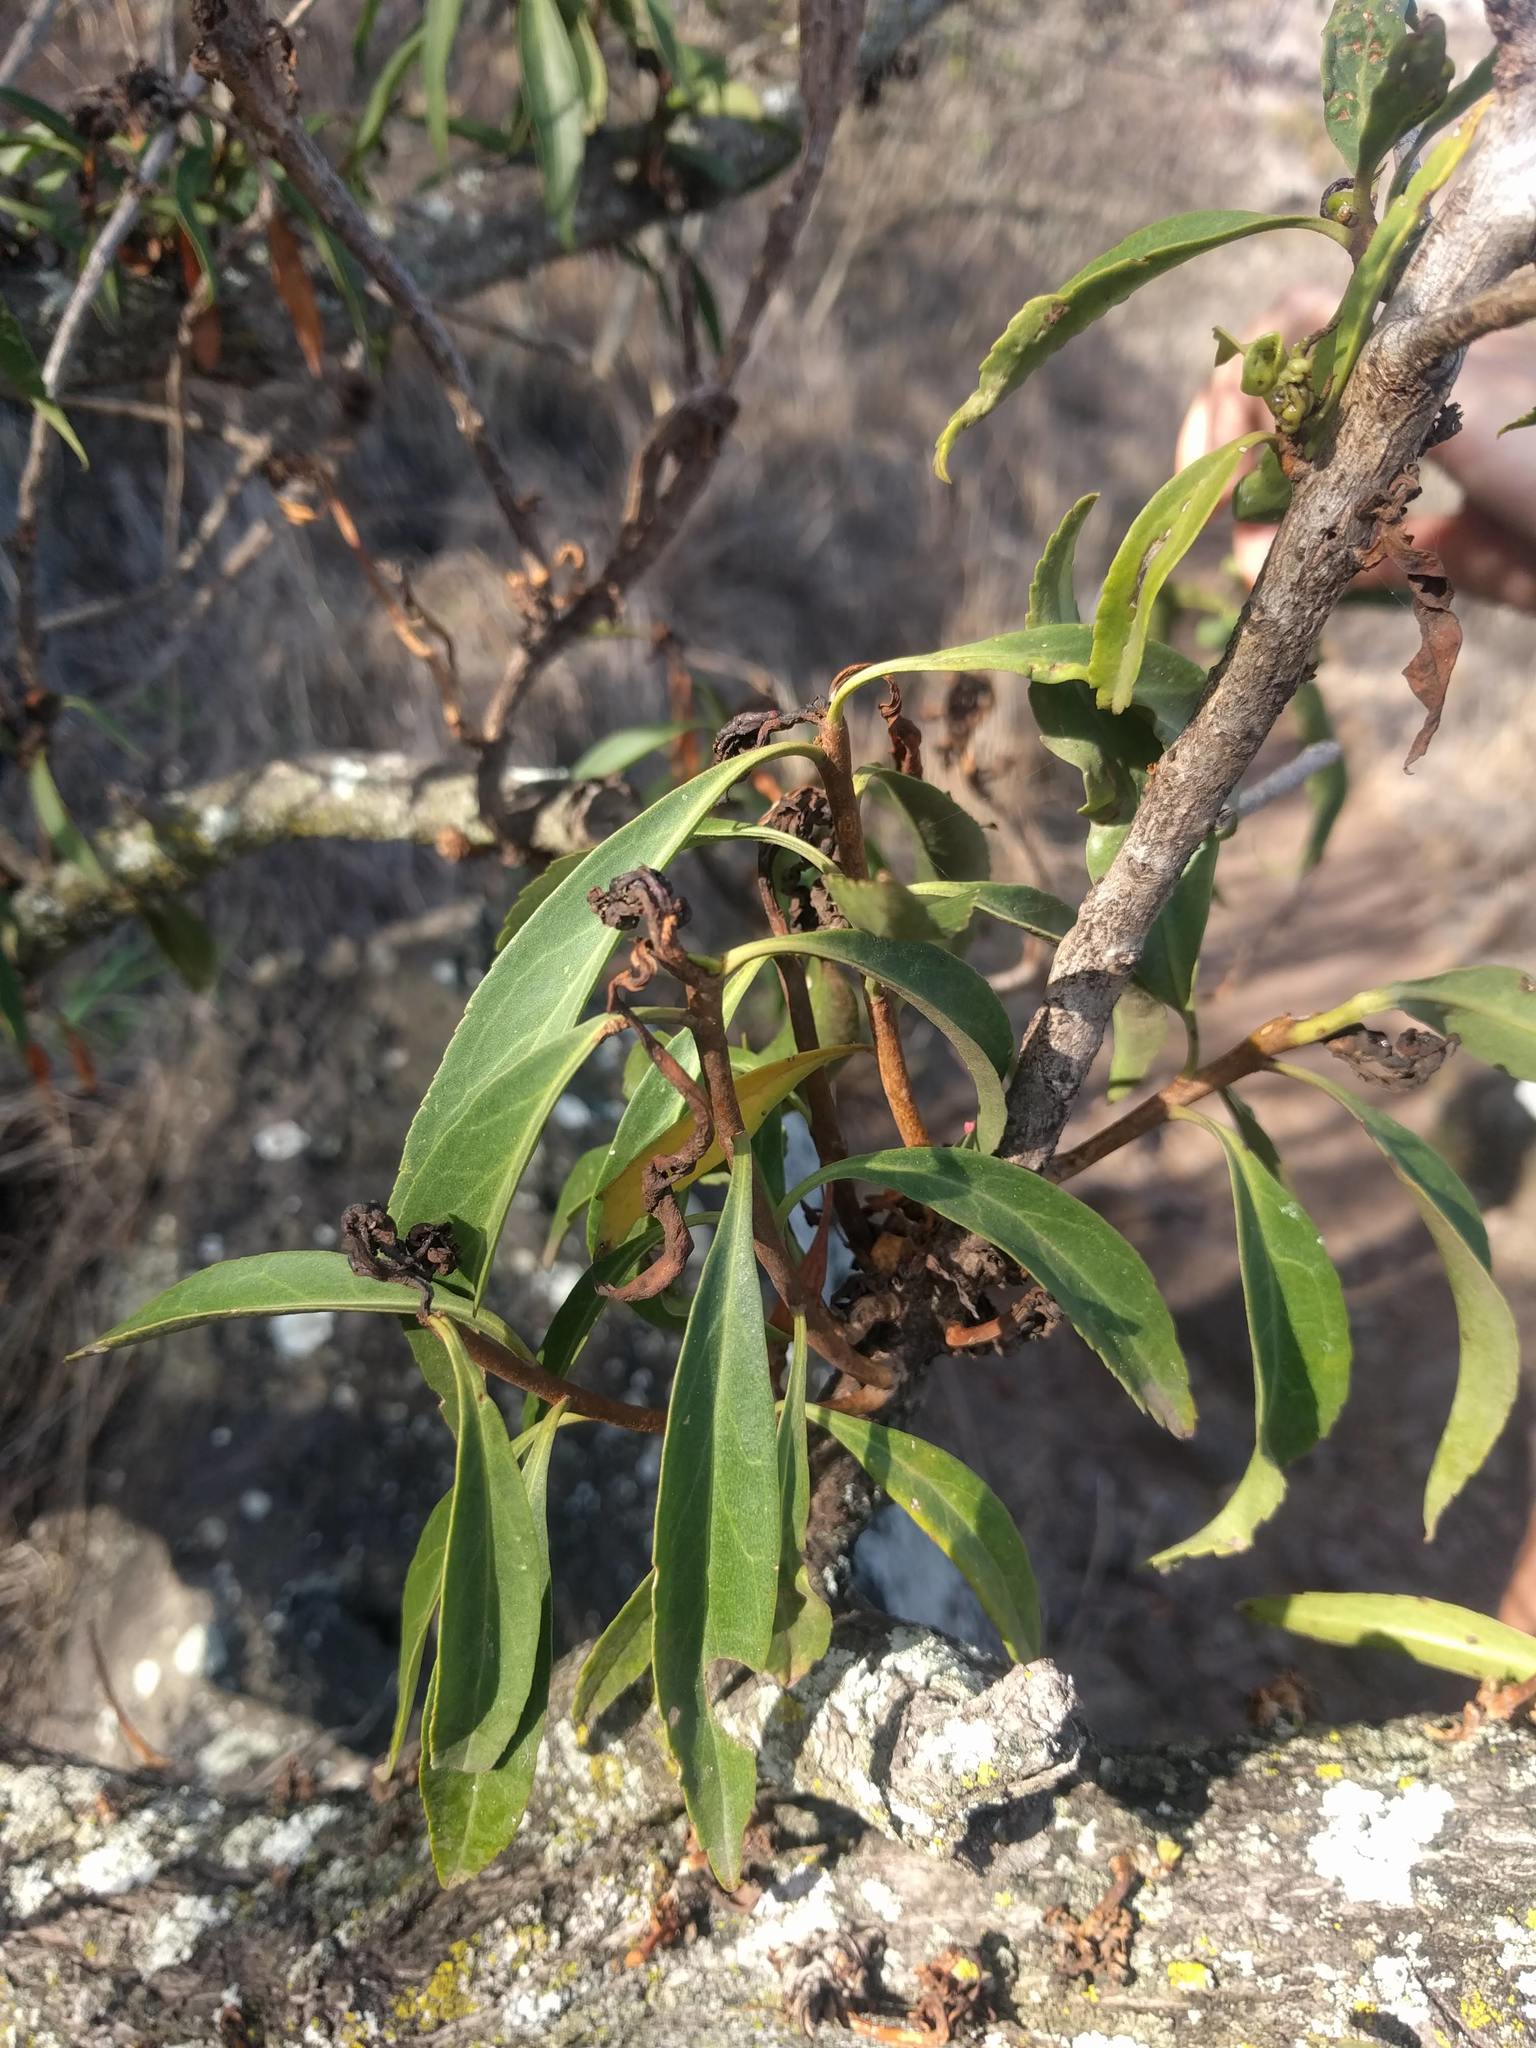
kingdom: Plantae
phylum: Tracheophyta
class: Magnoliopsida
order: Lamiales
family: Scrophulariaceae
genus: Myoporum
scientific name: Myoporum sandwicense
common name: Bastard-sandalwood
